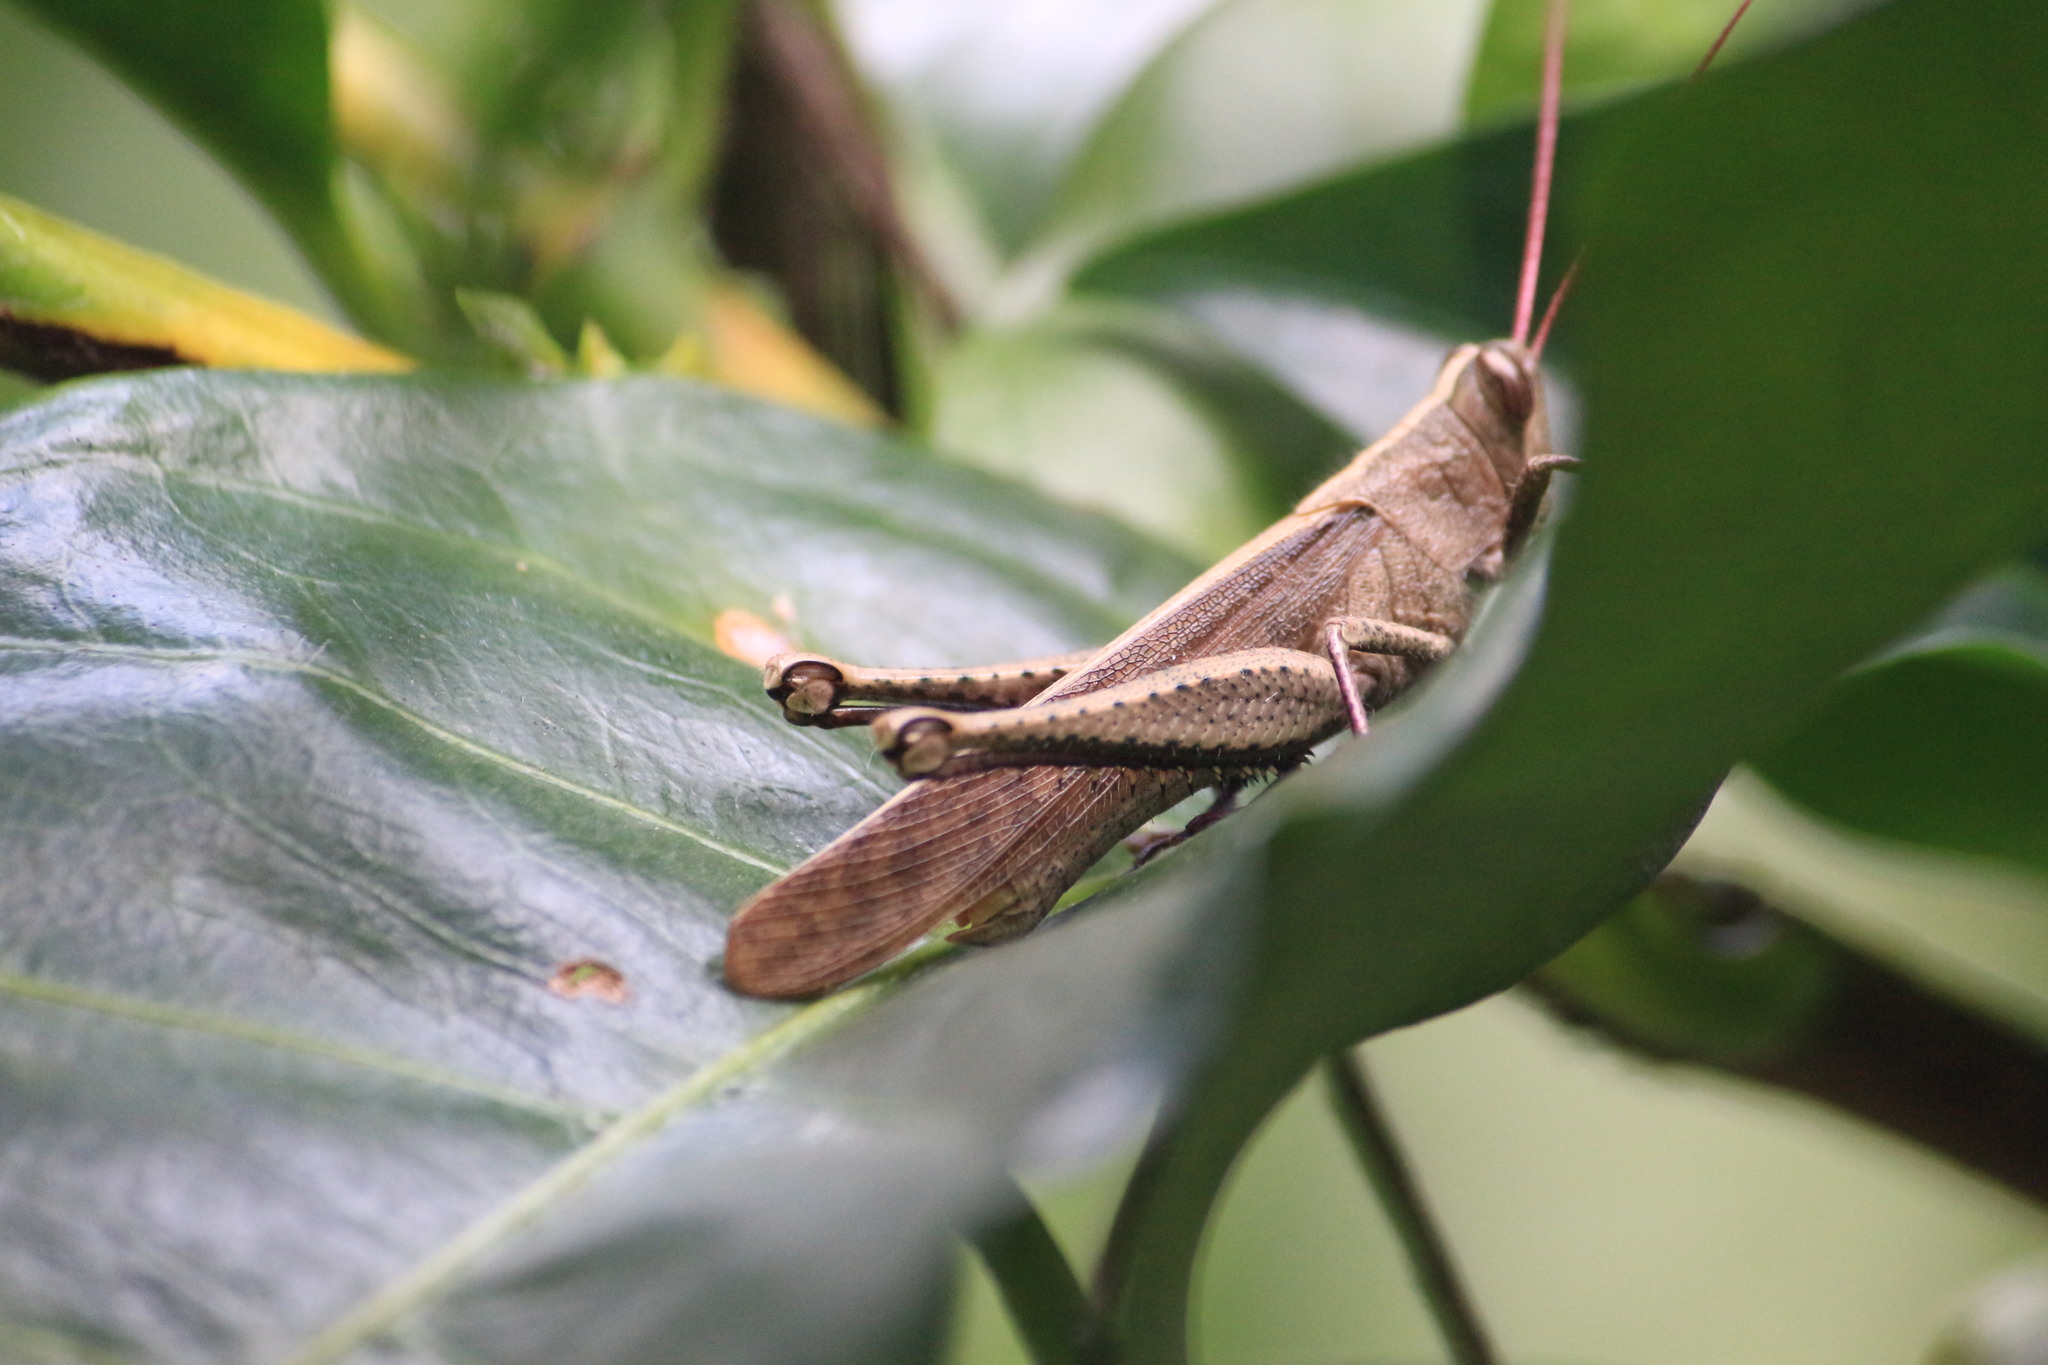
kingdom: Animalia
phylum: Arthropoda
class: Insecta
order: Orthoptera
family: Acrididae
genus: Schistocerca
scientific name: Schistocerca nitens
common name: Vagrant grasshopper
